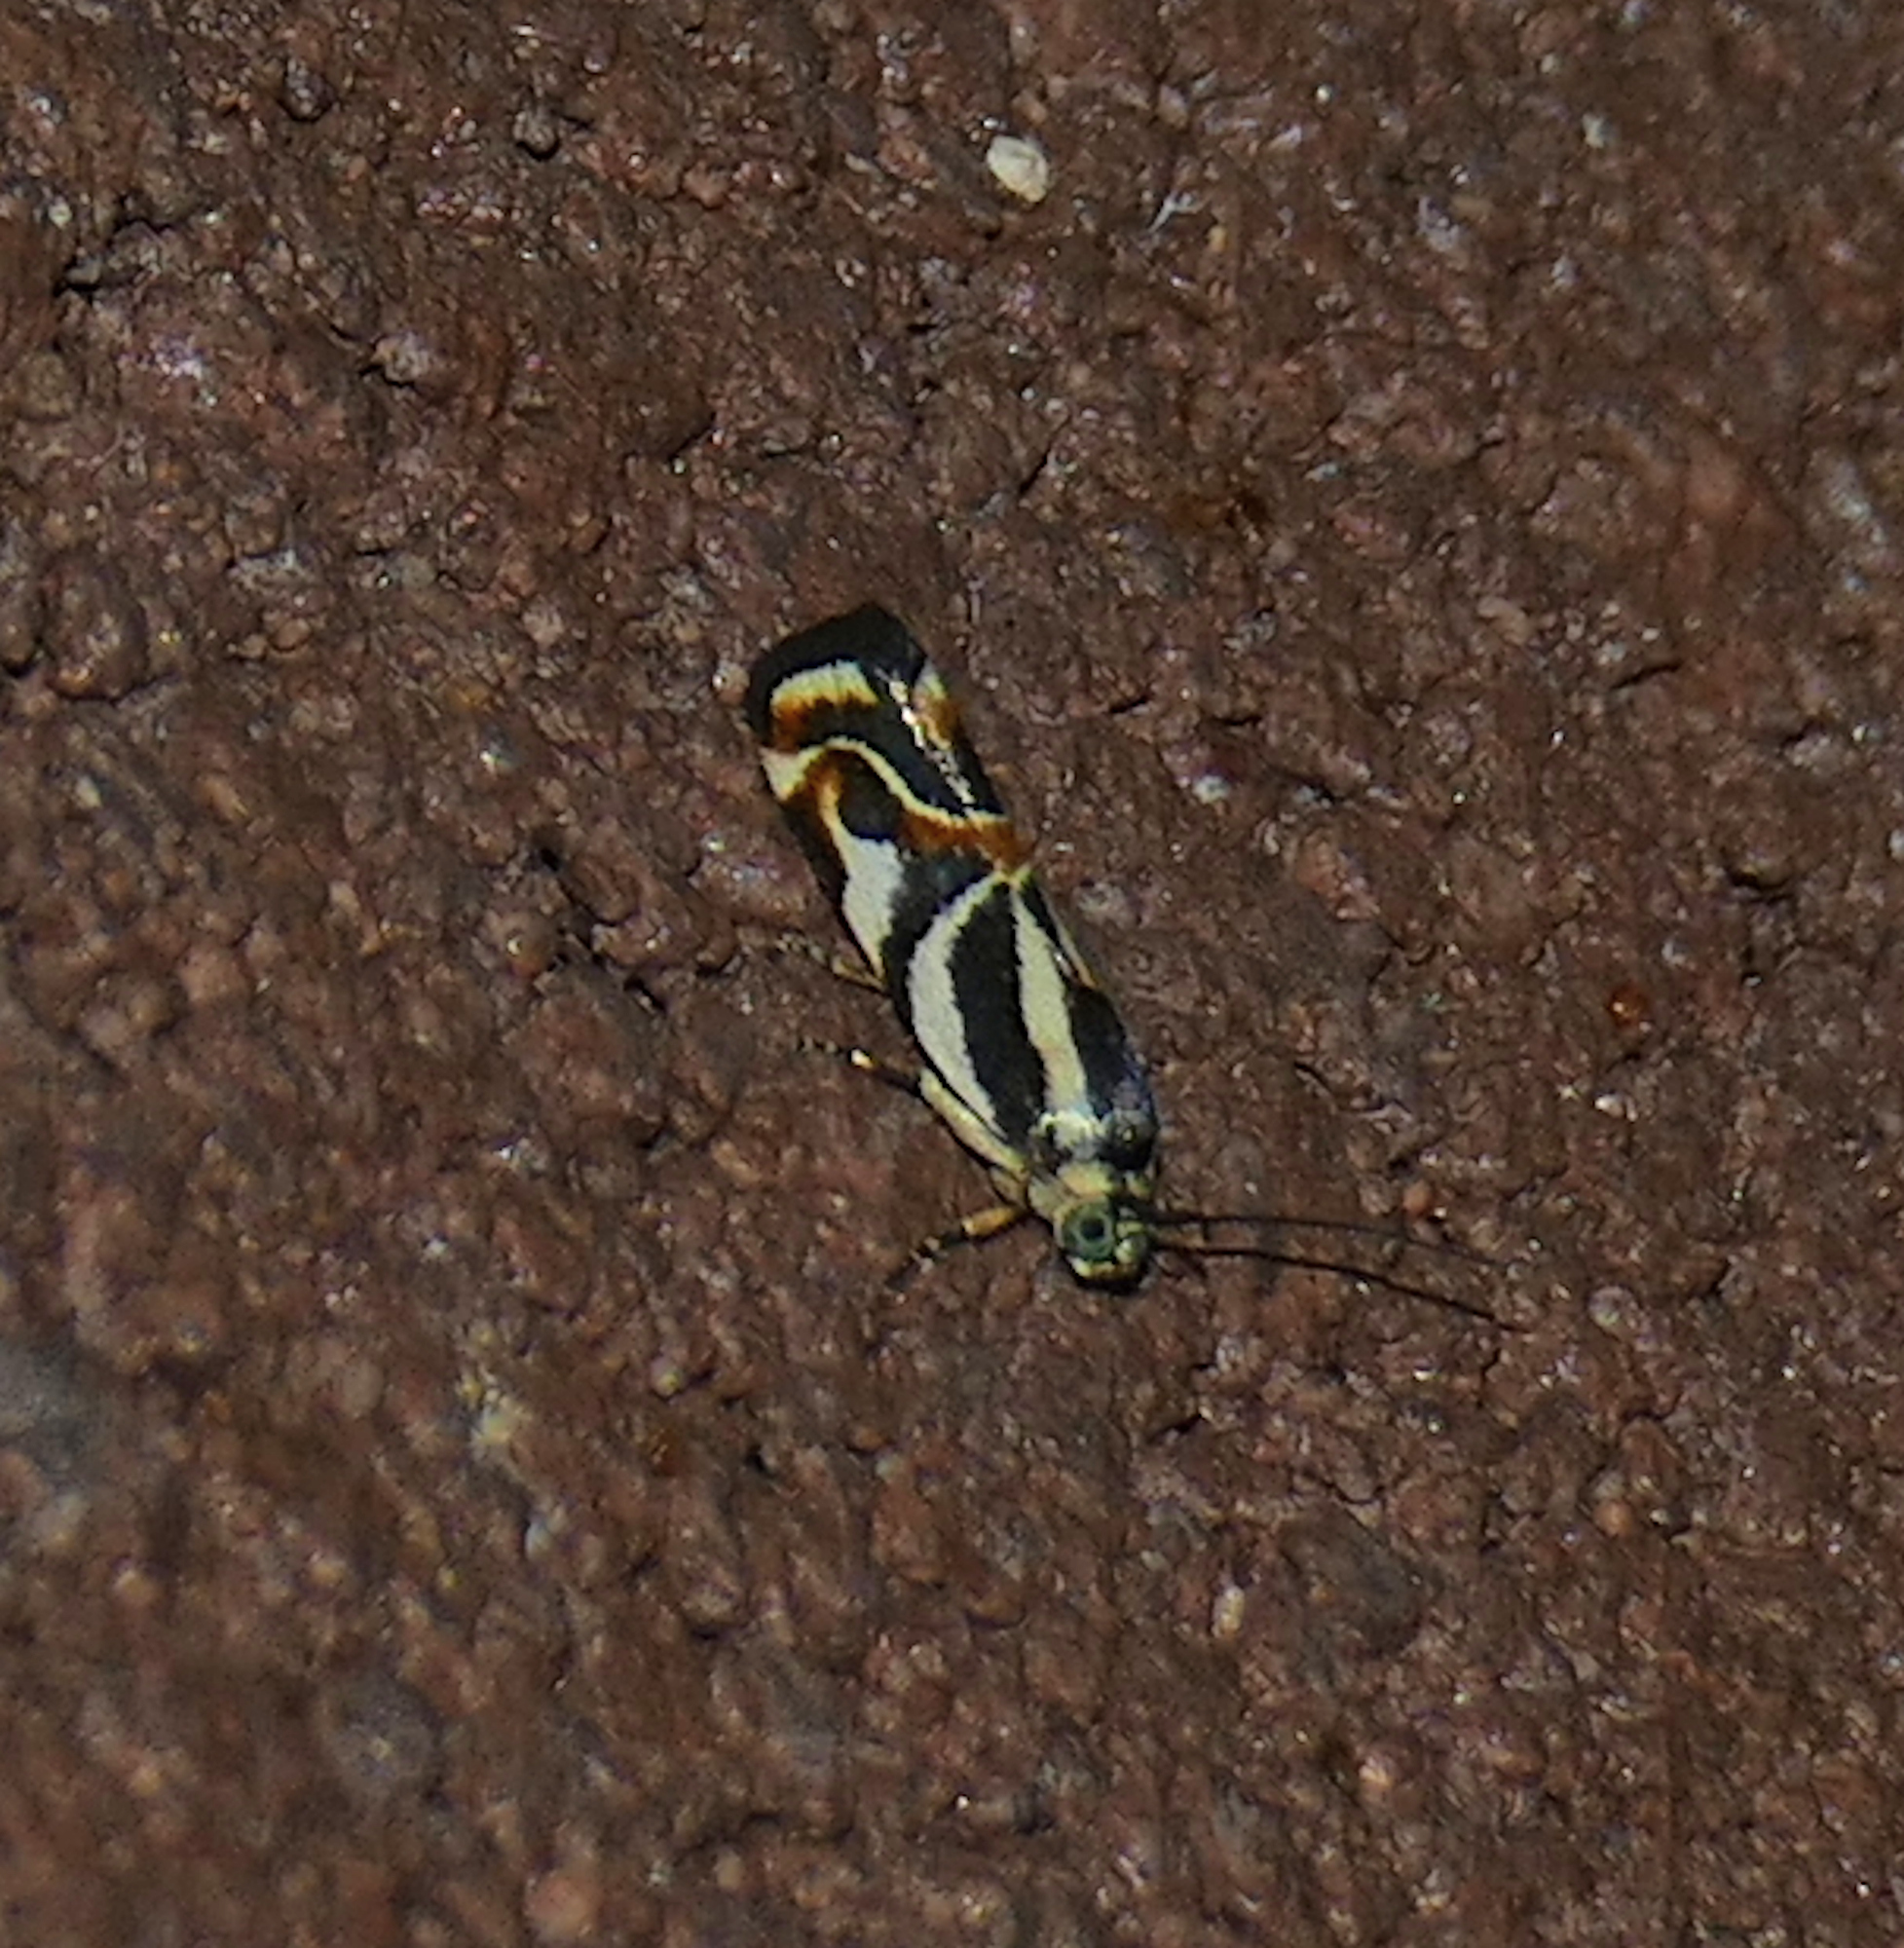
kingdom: Animalia
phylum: Arthropoda
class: Insecta
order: Lepidoptera
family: Noctuidae
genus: Spragueia
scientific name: Spragueia magnifica
